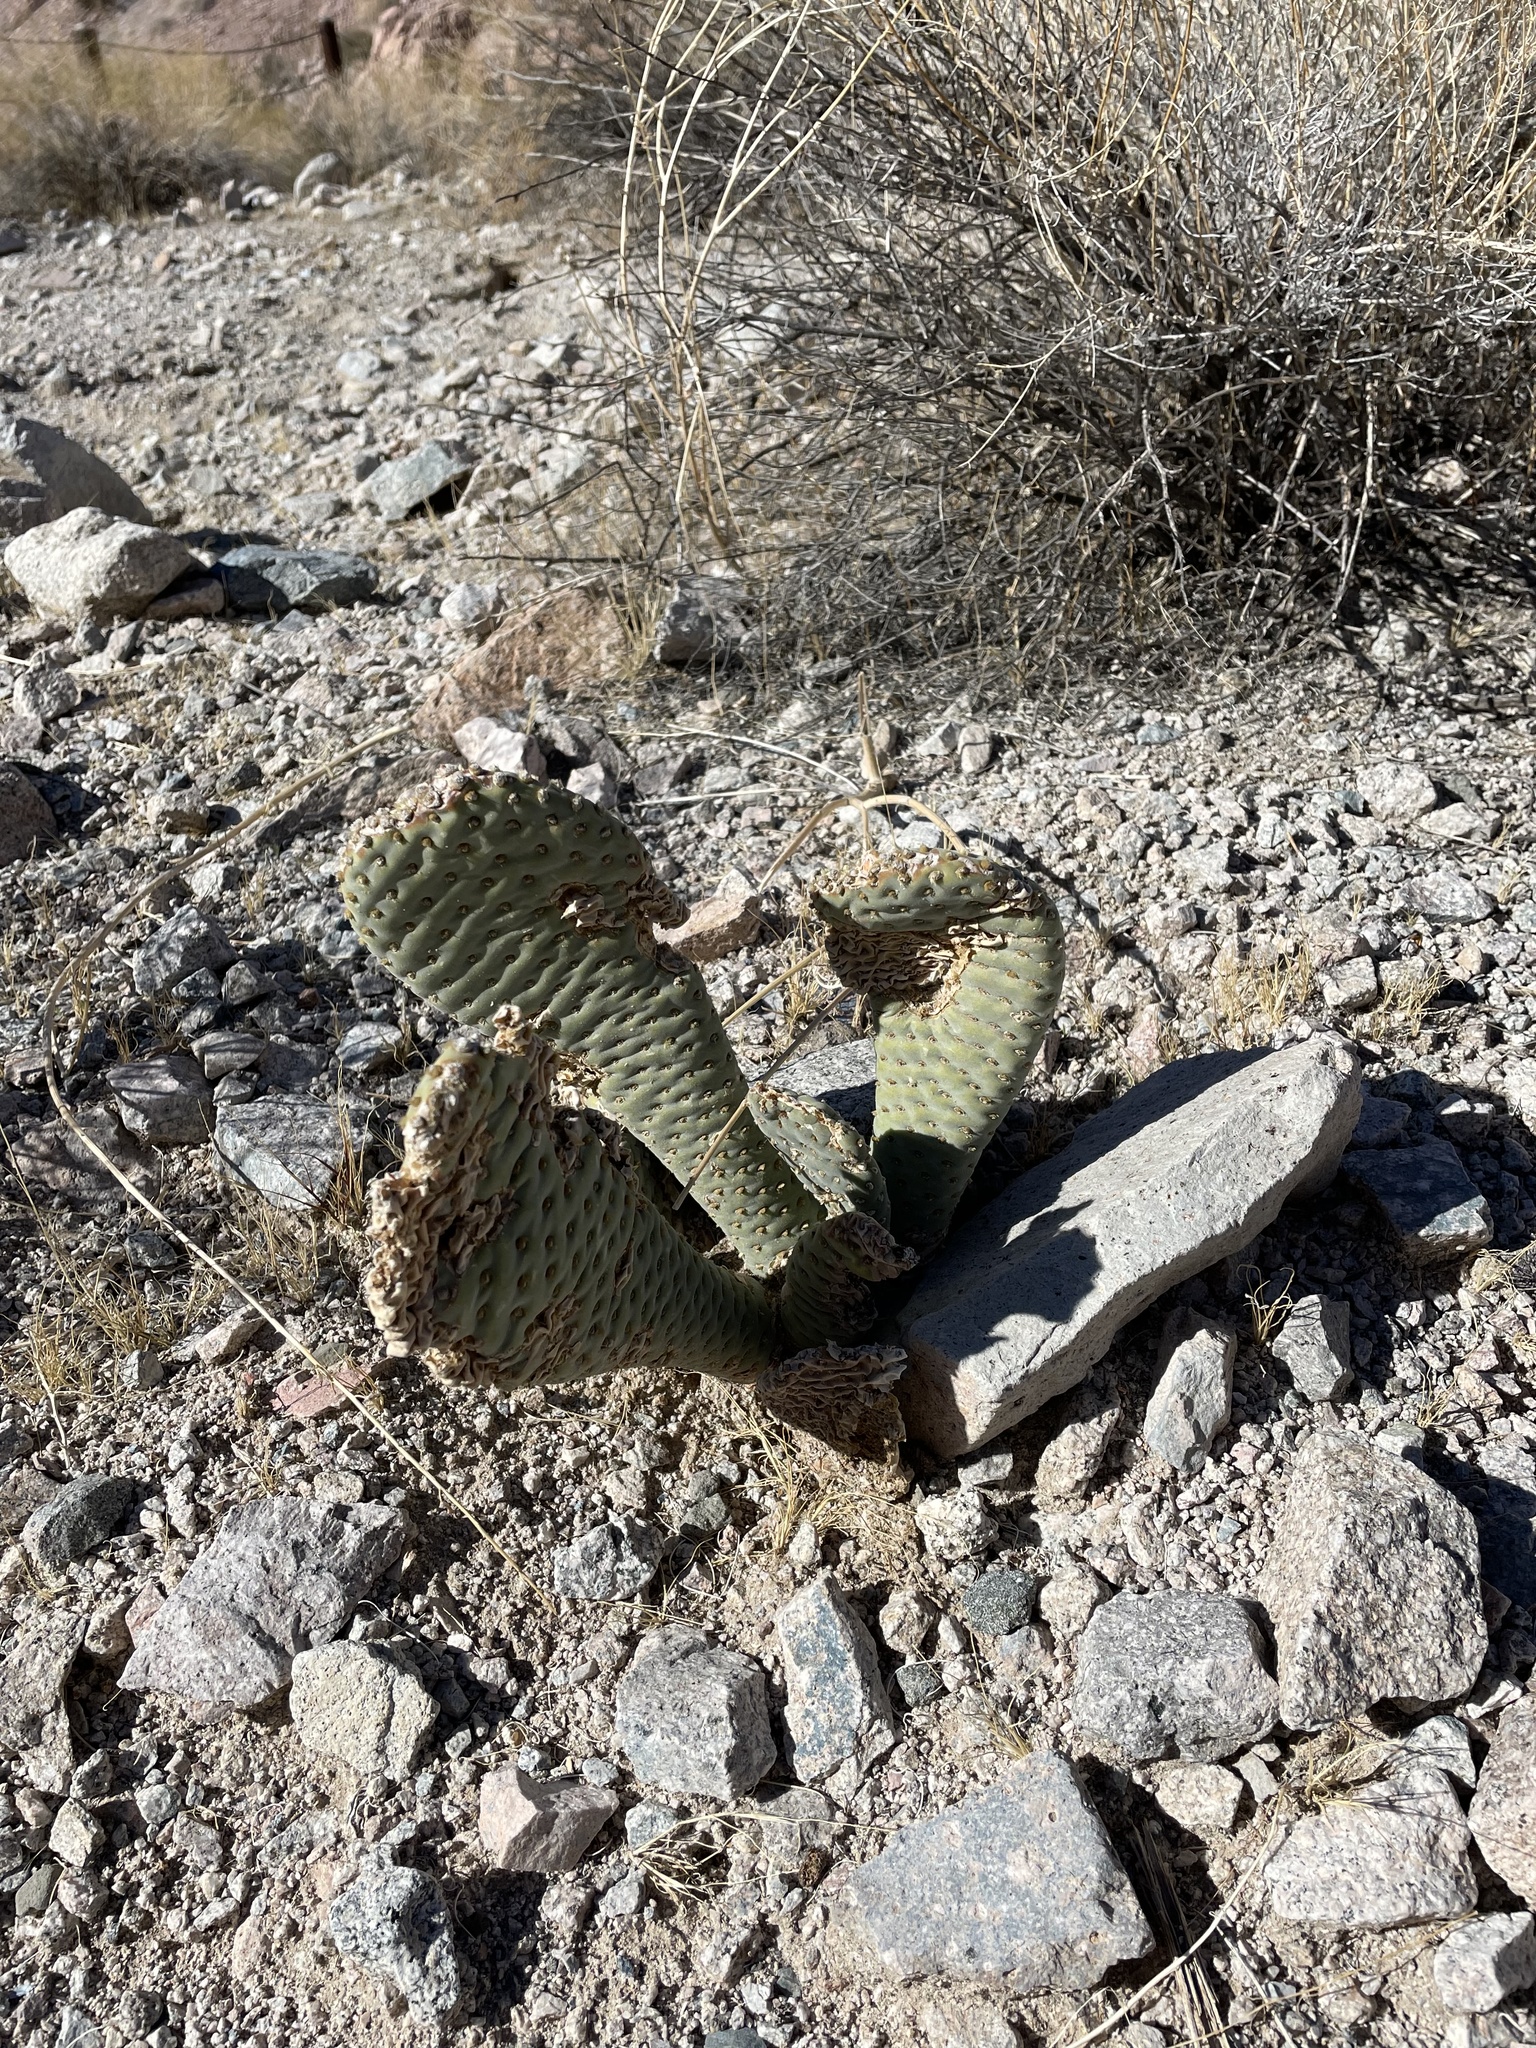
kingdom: Plantae
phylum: Tracheophyta
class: Magnoliopsida
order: Caryophyllales
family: Cactaceae
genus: Opuntia
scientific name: Opuntia basilaris
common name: Beavertail prickly-pear
